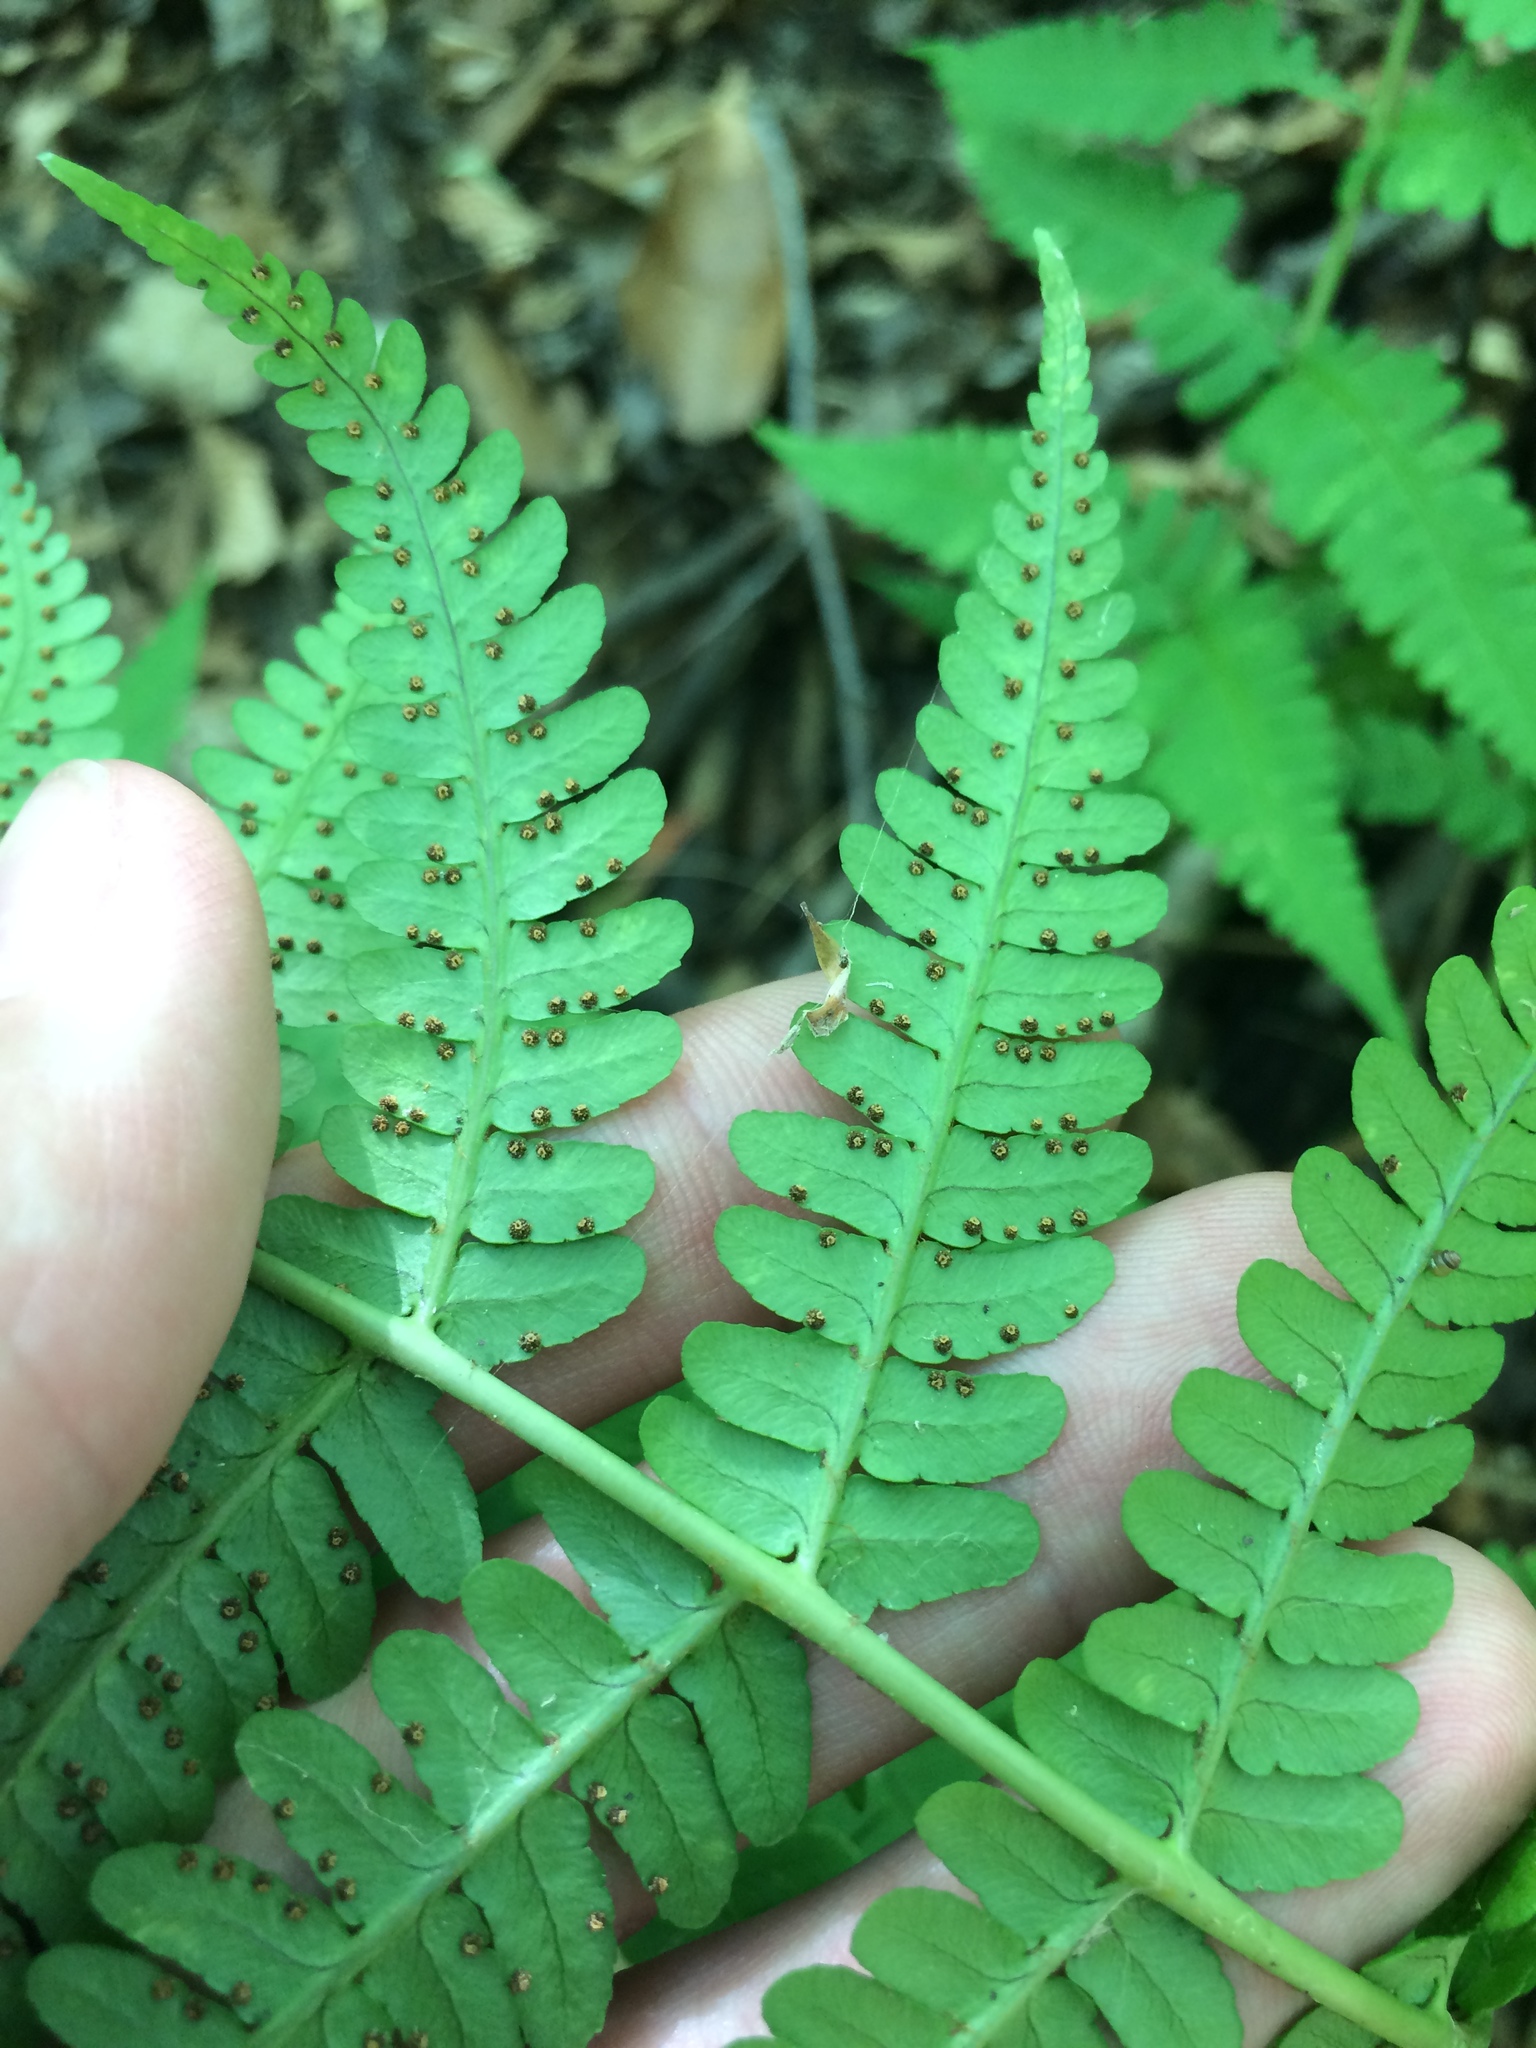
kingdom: Plantae
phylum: Tracheophyta
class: Polypodiopsida
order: Polypodiales
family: Dryopteridaceae
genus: Dryopteris
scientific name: Dryopteris marginalis
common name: Marginal wood fern
